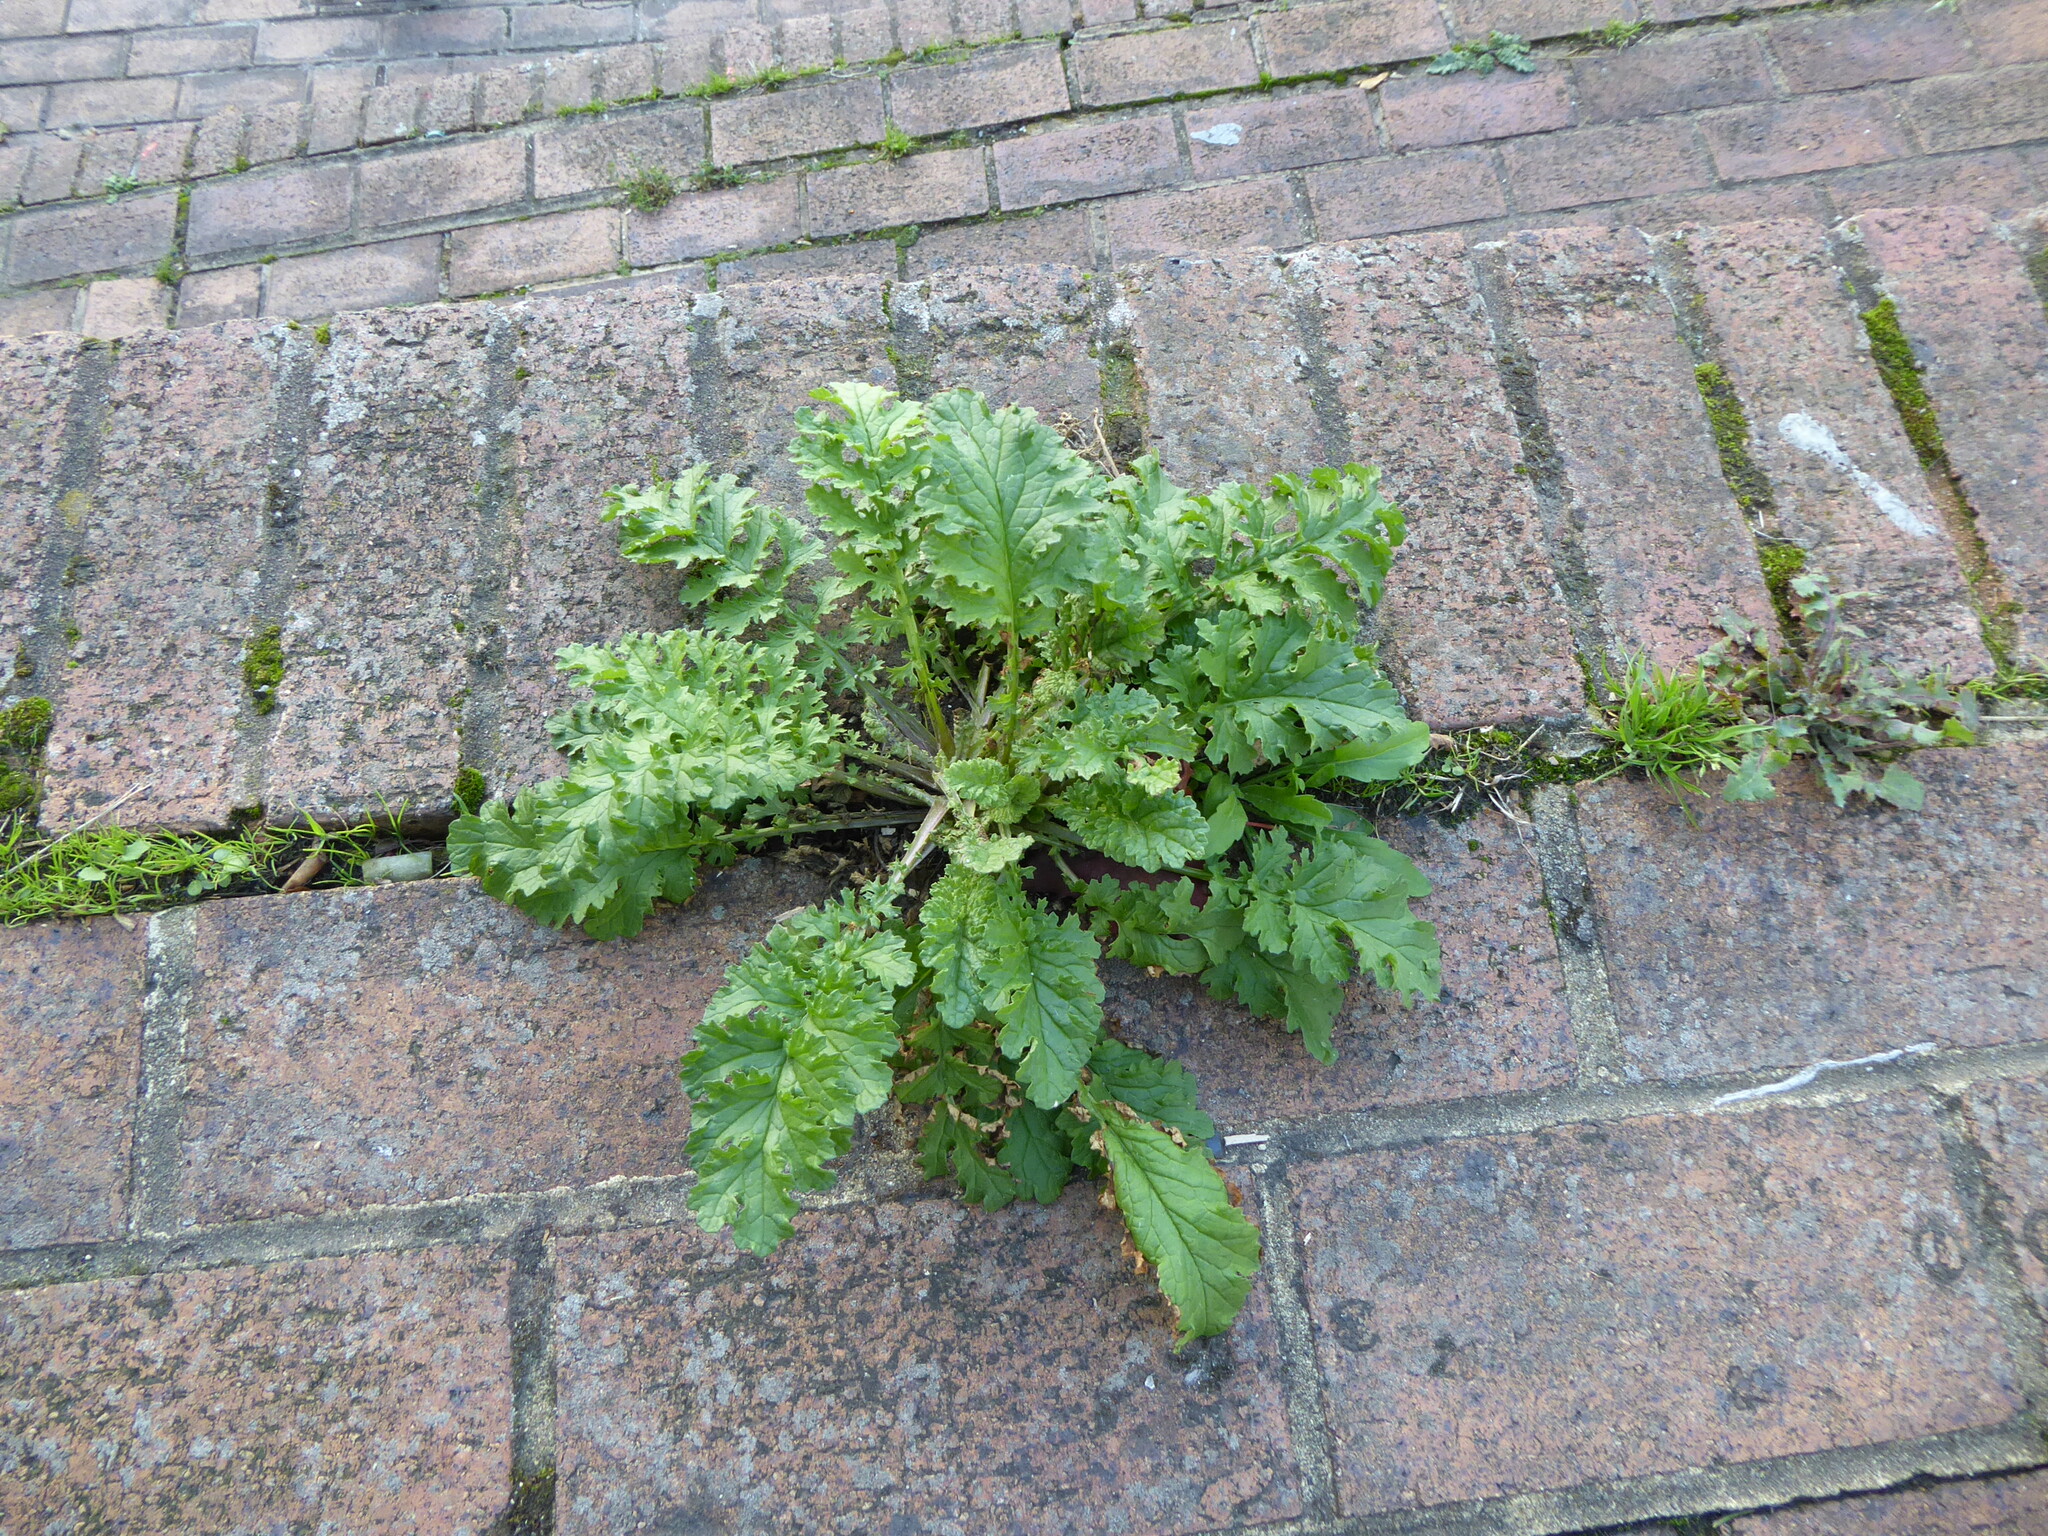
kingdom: Plantae
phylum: Tracheophyta
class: Magnoliopsida
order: Asterales
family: Asteraceae
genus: Jacobaea
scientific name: Jacobaea vulgaris
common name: Stinking willie
